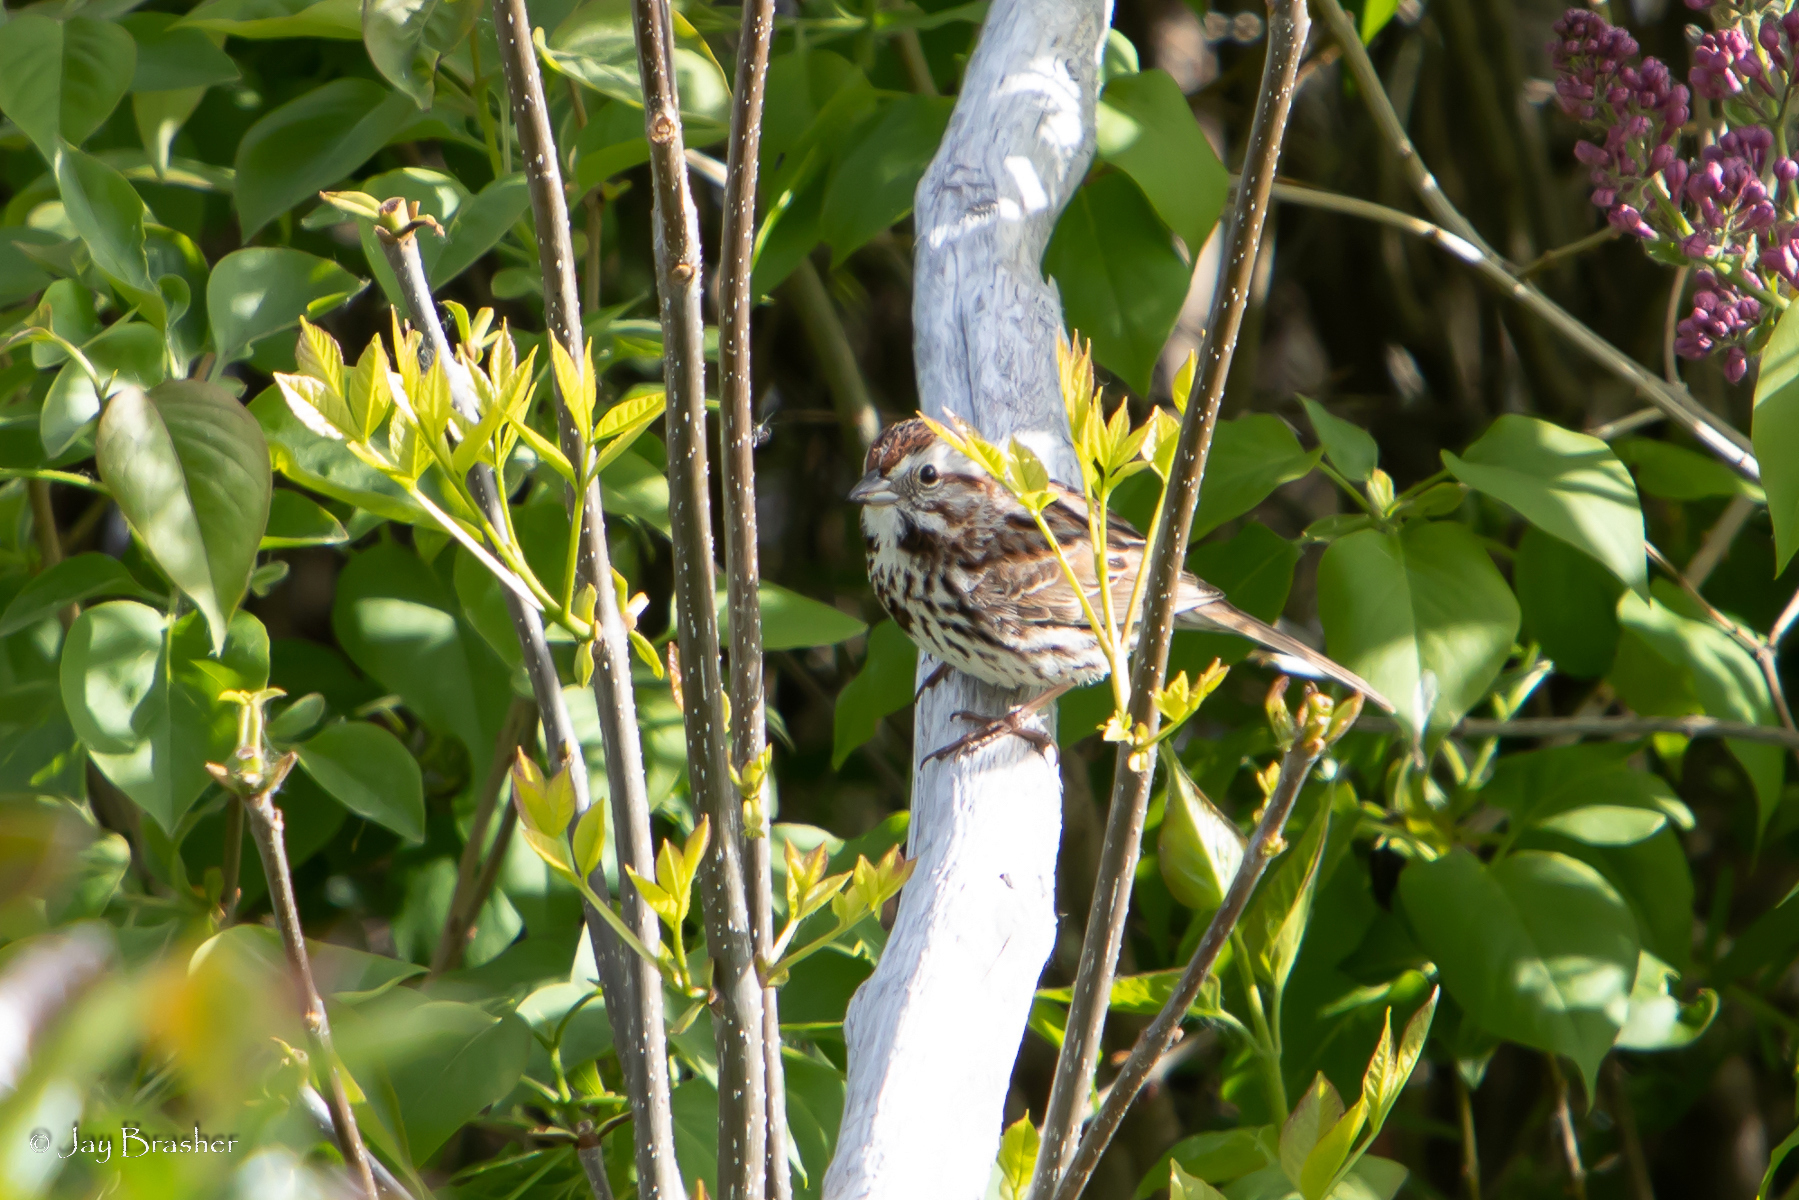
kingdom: Animalia
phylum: Chordata
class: Aves
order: Passeriformes
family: Passerellidae
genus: Melospiza
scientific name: Melospiza melodia
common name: Song sparrow
